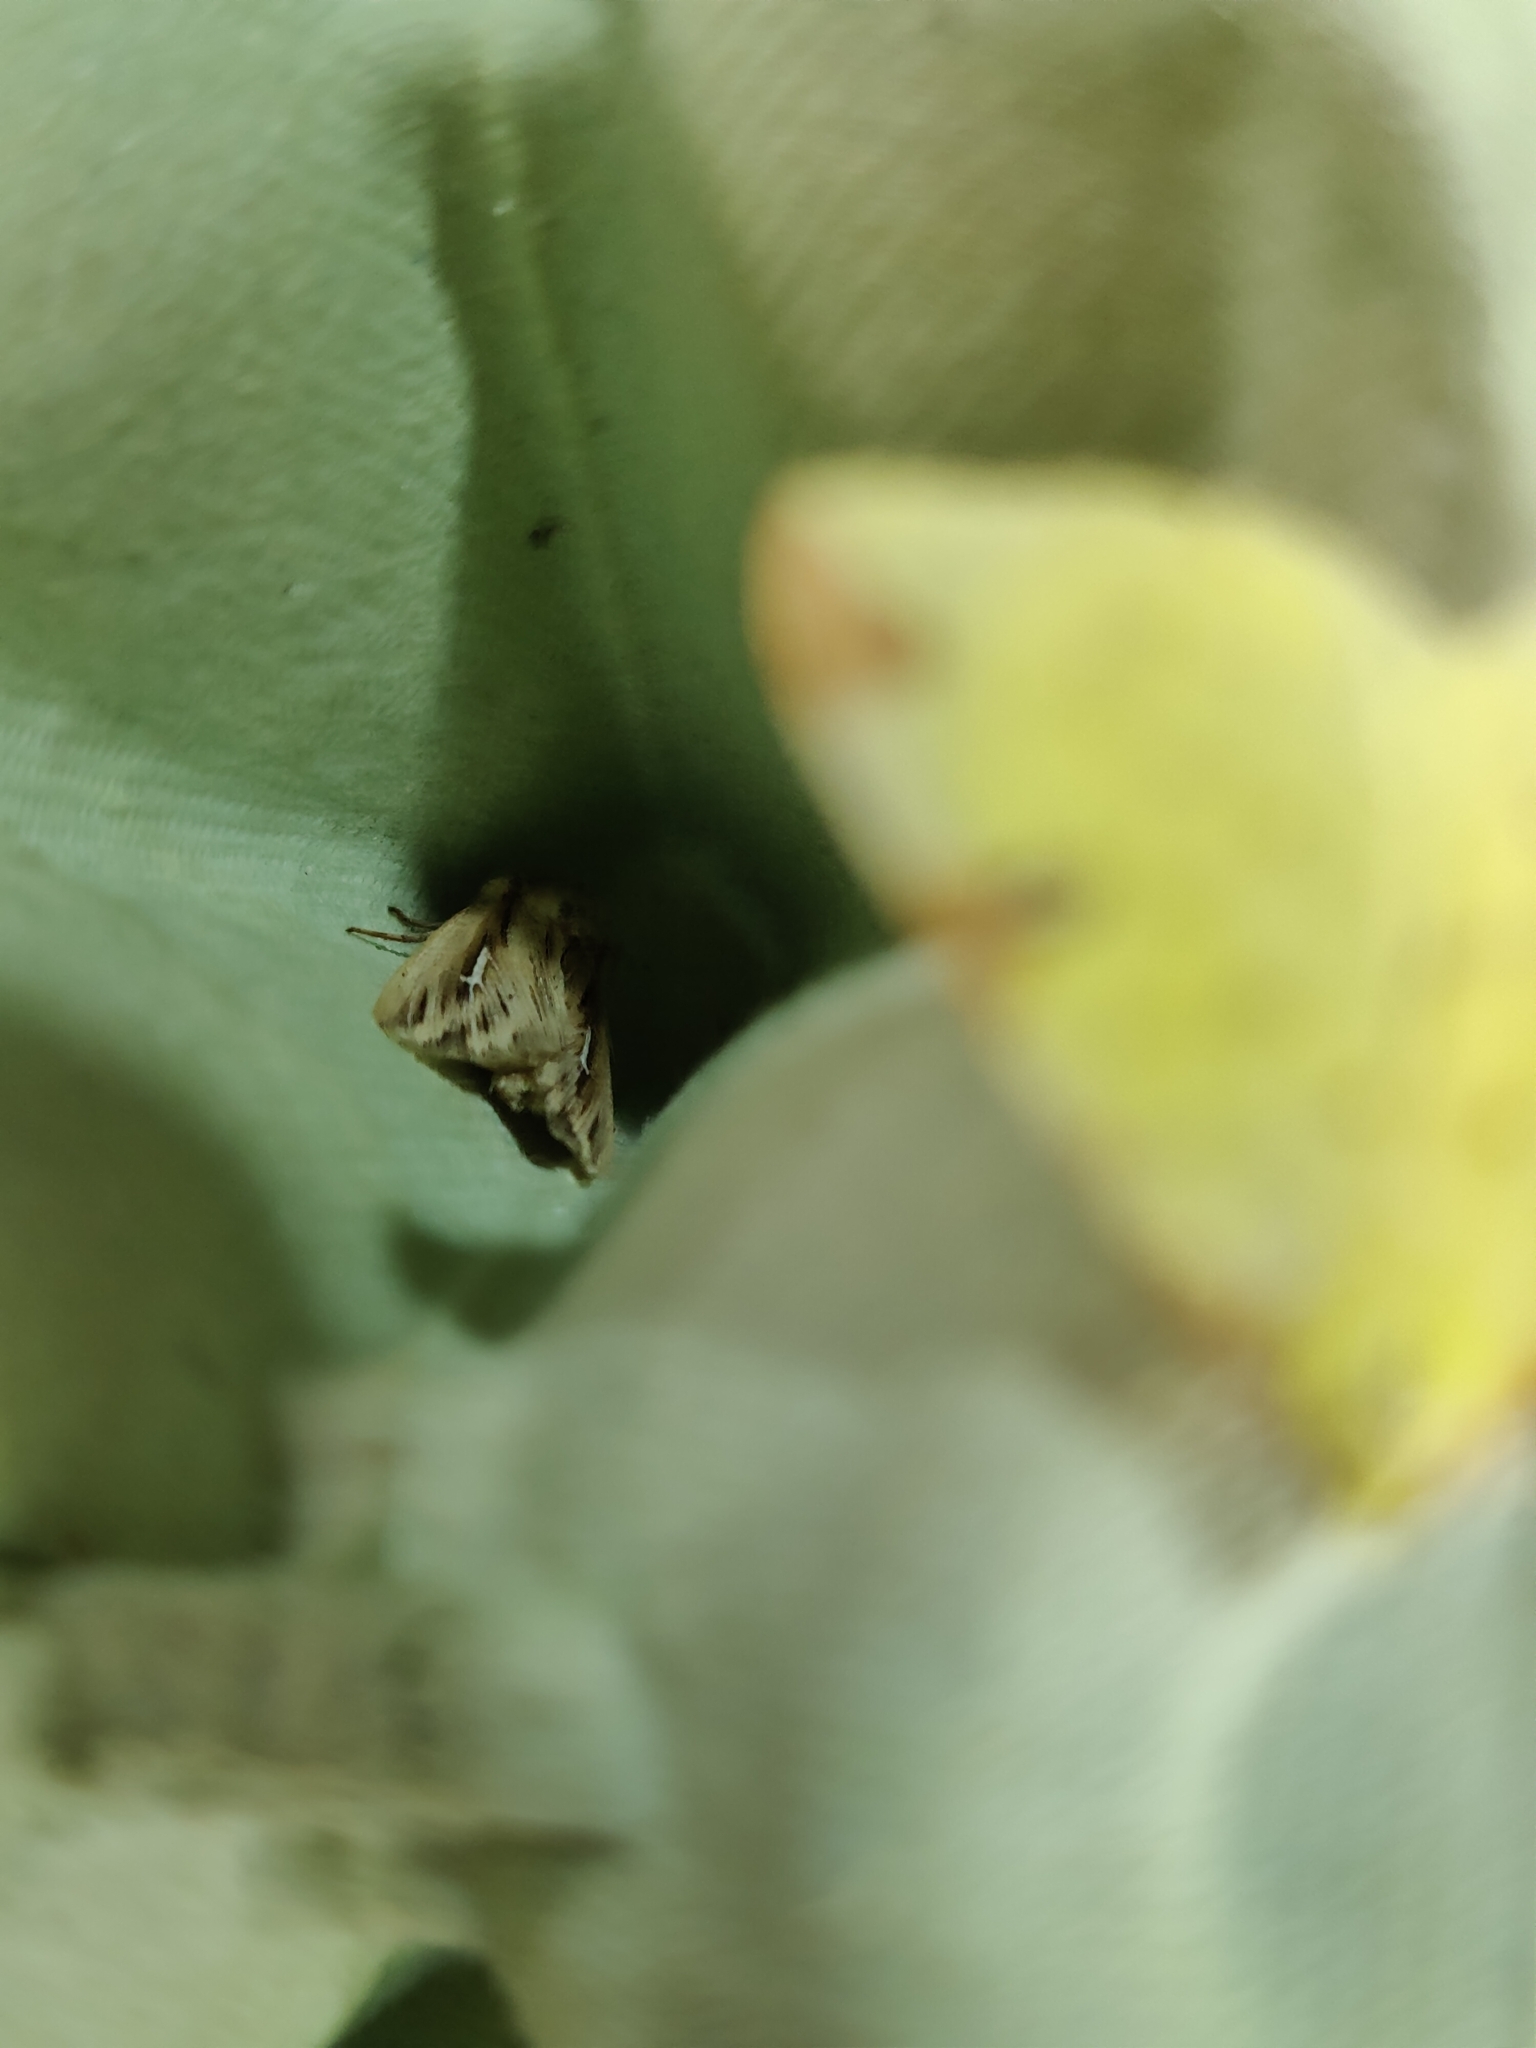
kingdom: Animalia
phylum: Arthropoda
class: Insecta
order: Lepidoptera
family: Noctuidae
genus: Mythimna
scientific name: Mythimna l-album
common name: L-album wainscot
